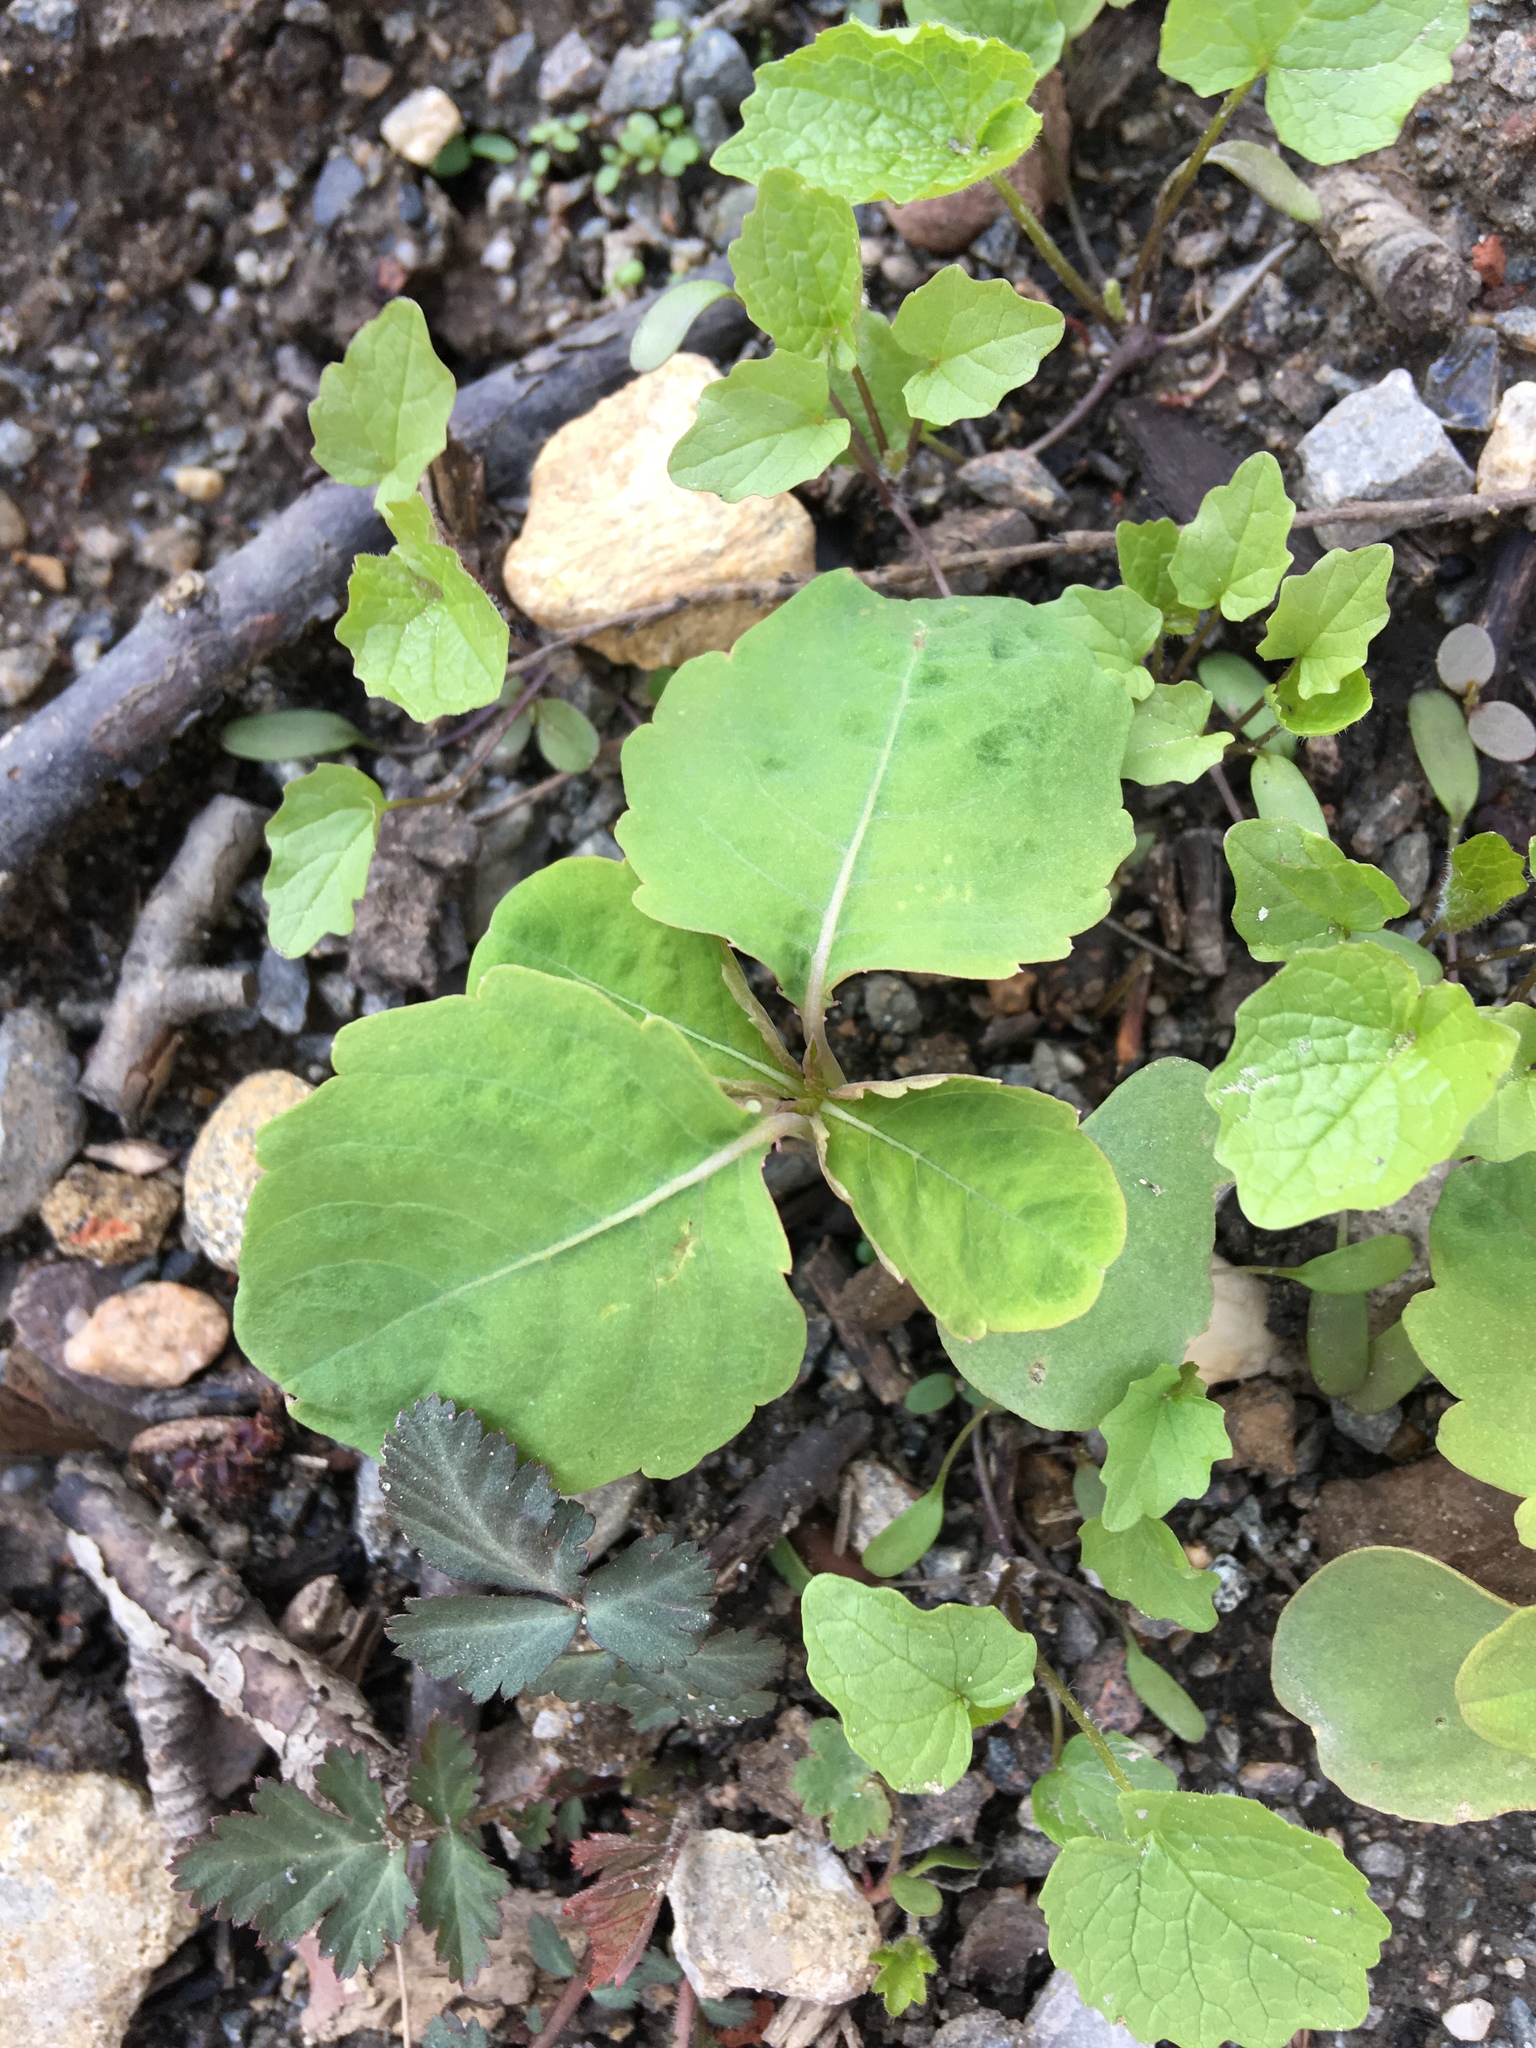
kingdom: Plantae
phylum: Tracheophyta
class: Magnoliopsida
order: Brassicales
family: Brassicaceae
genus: Alliaria
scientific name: Alliaria petiolata
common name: Garlic mustard
